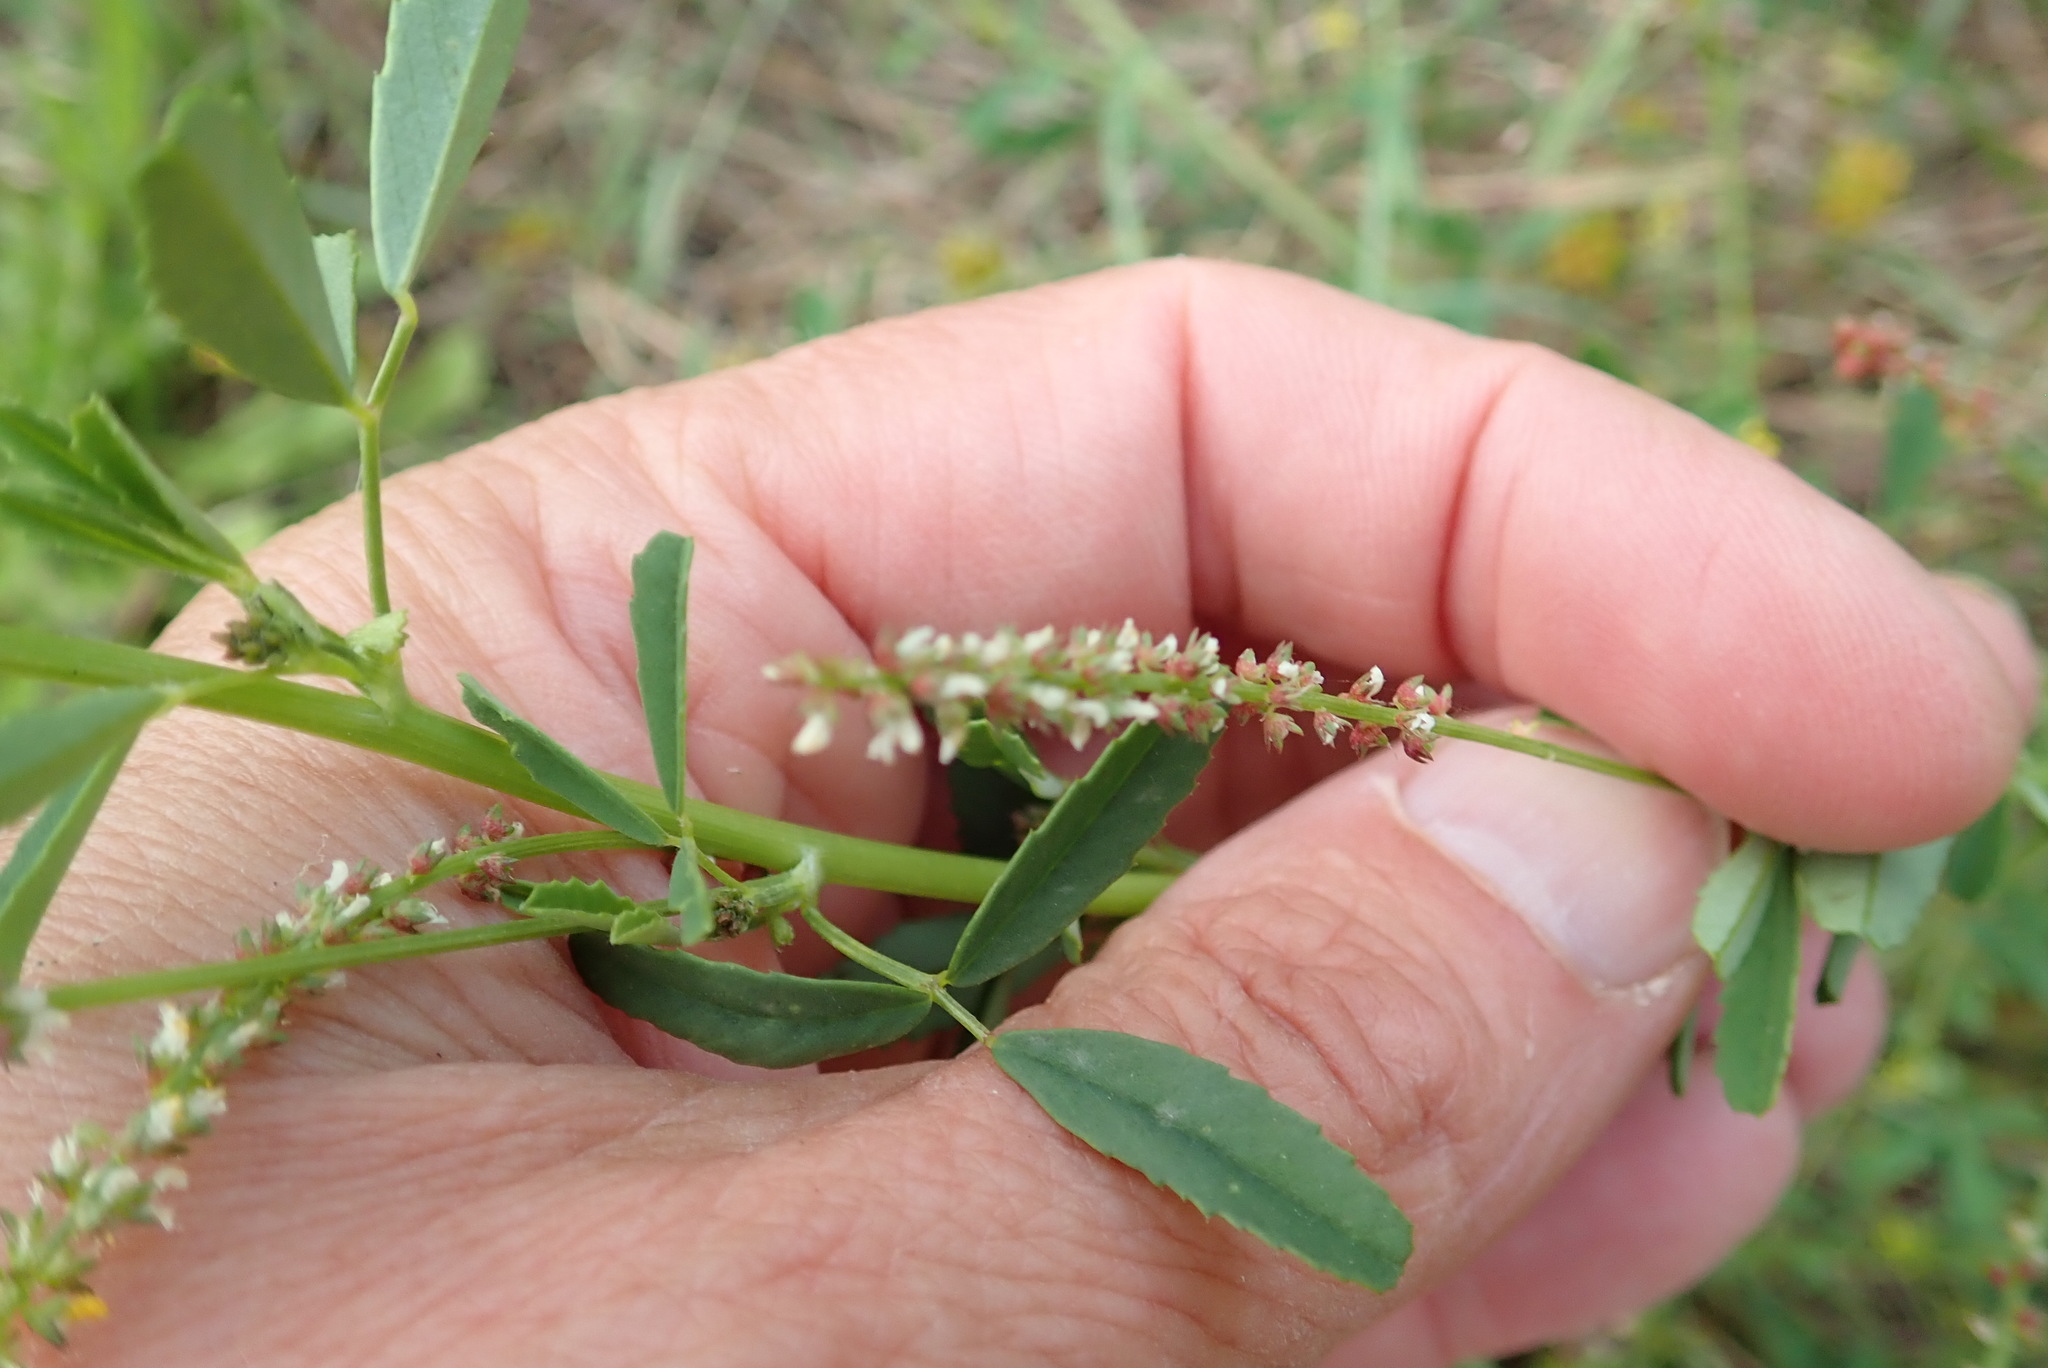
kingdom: Plantae
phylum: Tracheophyta
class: Magnoliopsida
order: Fabales
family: Fabaceae
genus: Melilotus
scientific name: Melilotus indicus
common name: Small melilot
